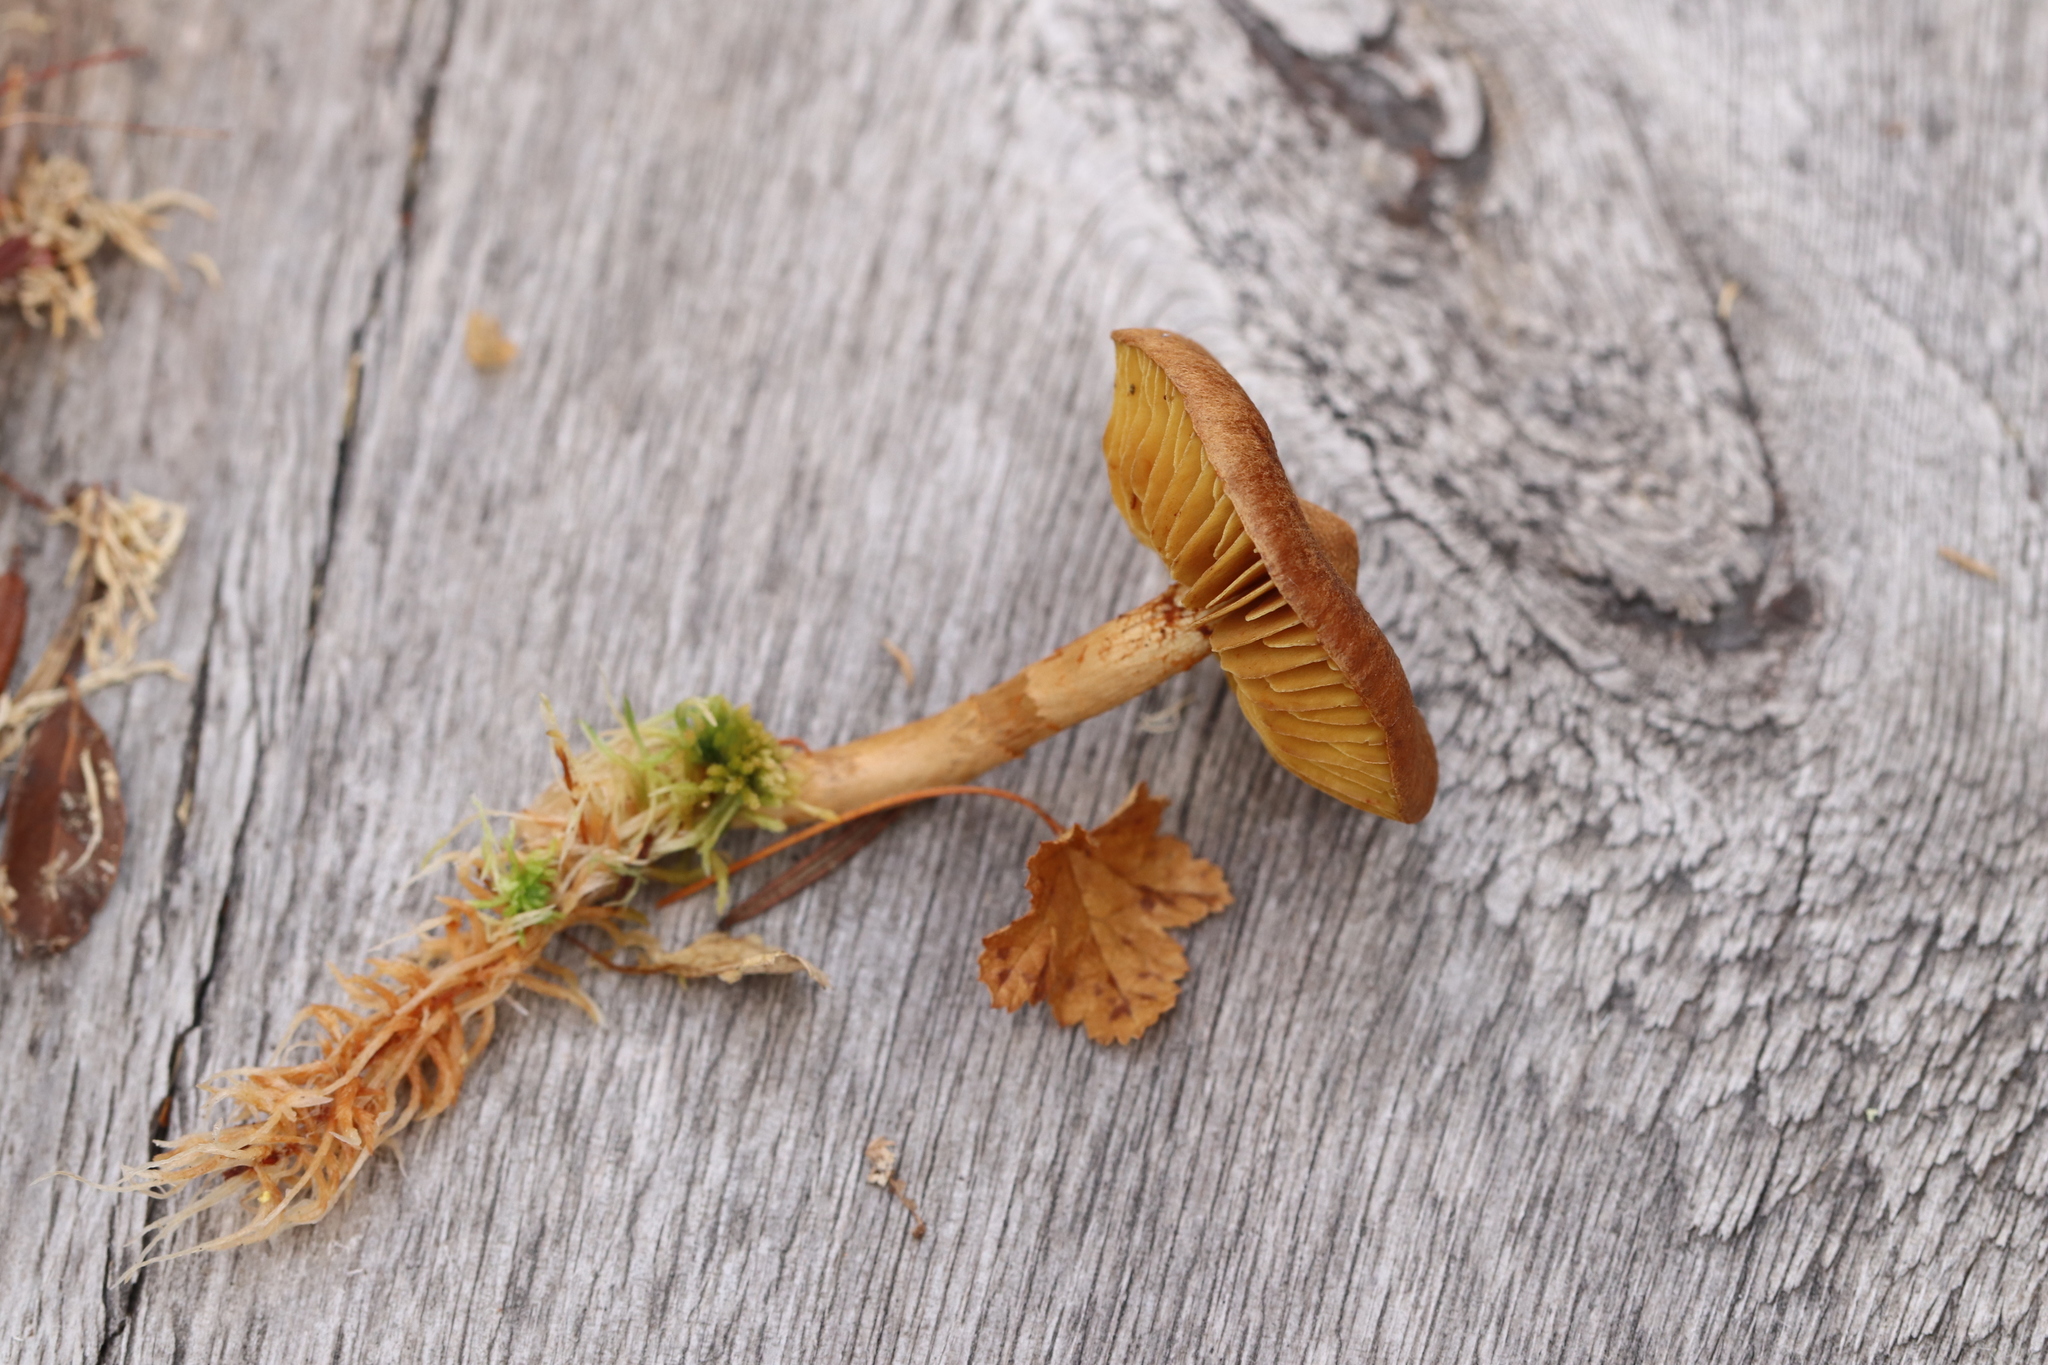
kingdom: Fungi
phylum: Basidiomycota
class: Agaricomycetes
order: Agaricales
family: Cortinariaceae
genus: Cortinarius
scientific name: Cortinarius chrysolitus
